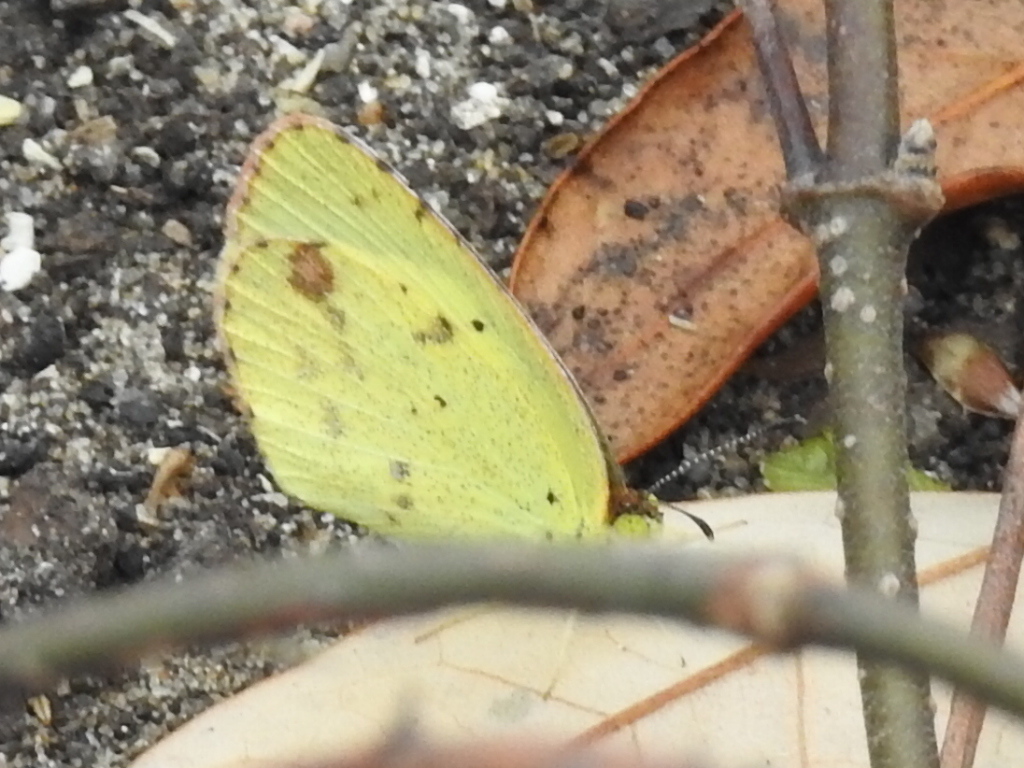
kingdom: Animalia
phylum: Arthropoda
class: Insecta
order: Lepidoptera
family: Pieridae
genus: Pyrisitia
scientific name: Pyrisitia lisa
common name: Little yellow
